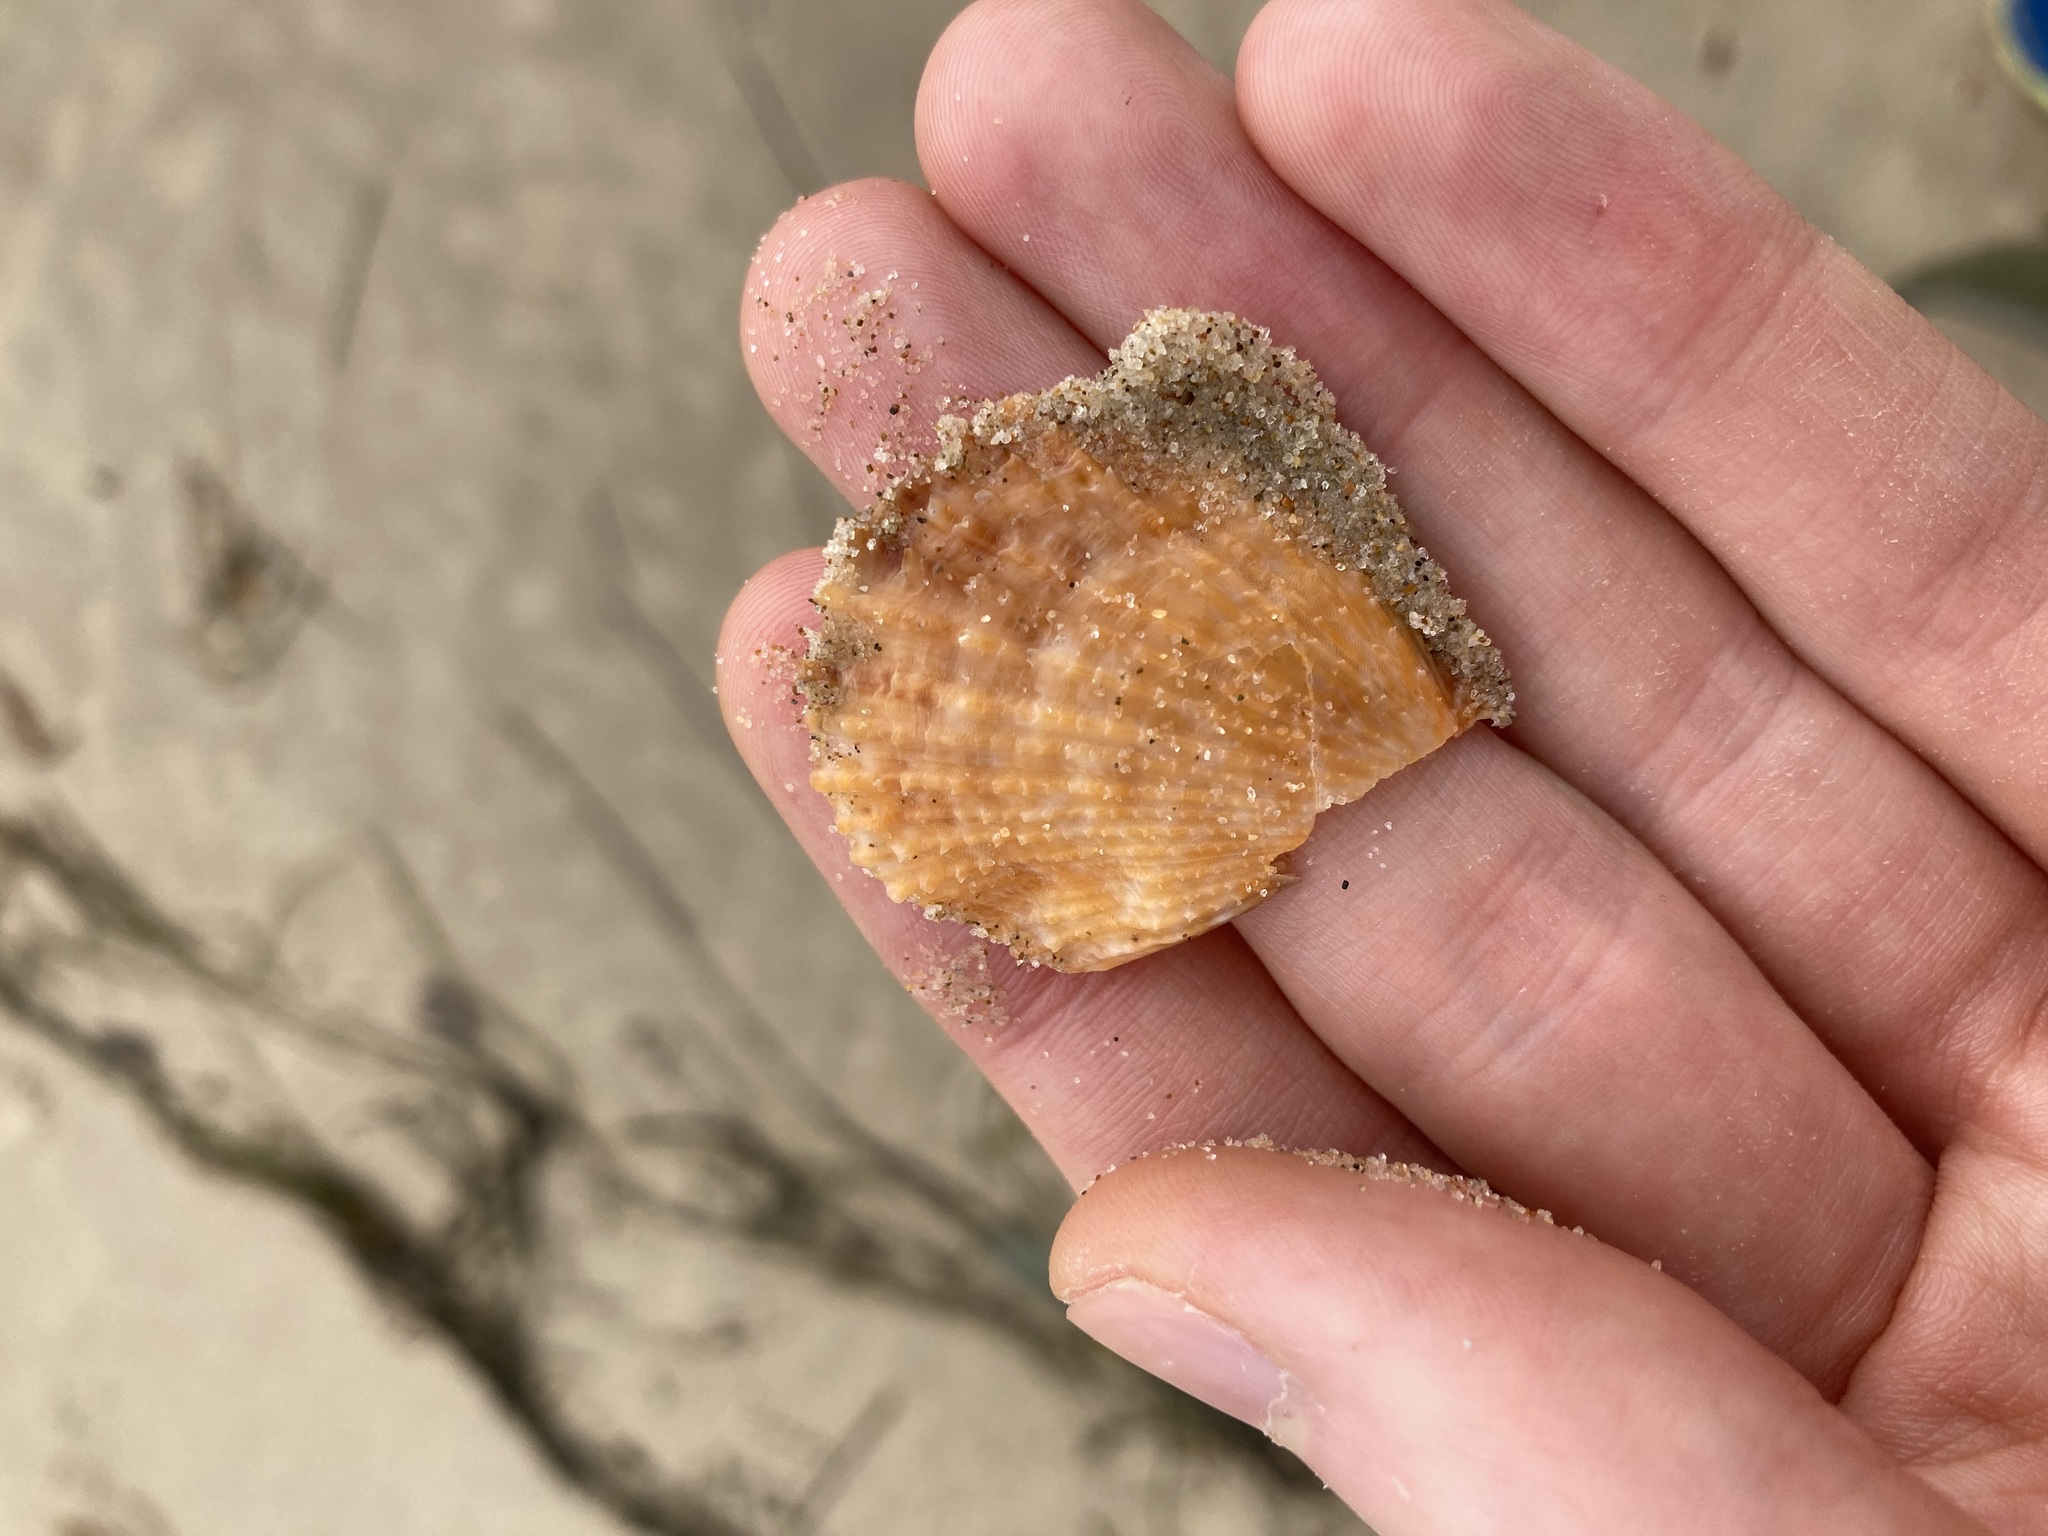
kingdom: Animalia
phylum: Mollusca
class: Bivalvia
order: Pectinida
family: Pectinidae
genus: Scaeochlamys
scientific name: Scaeochlamys livida
